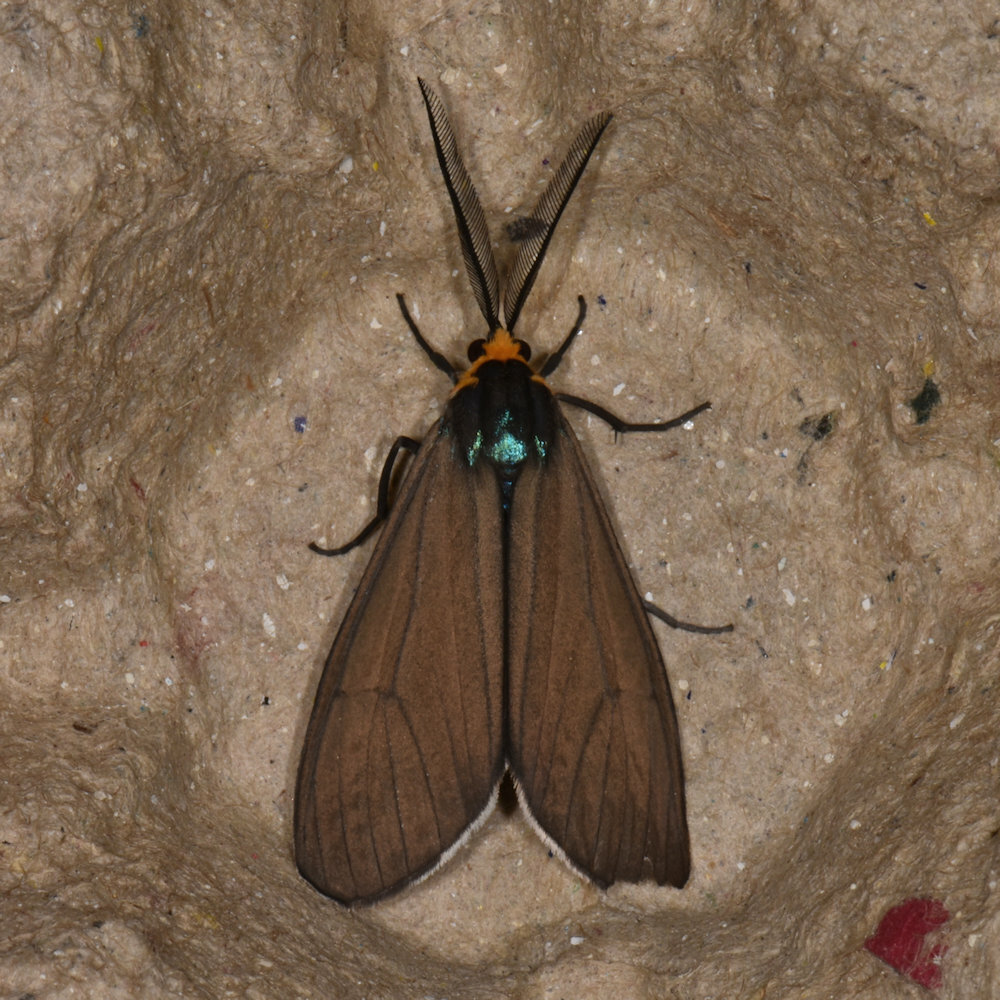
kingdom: Animalia
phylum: Arthropoda
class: Insecta
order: Lepidoptera
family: Erebidae
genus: Ctenucha
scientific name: Ctenucha virginica
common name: Virginia ctenucha moth
